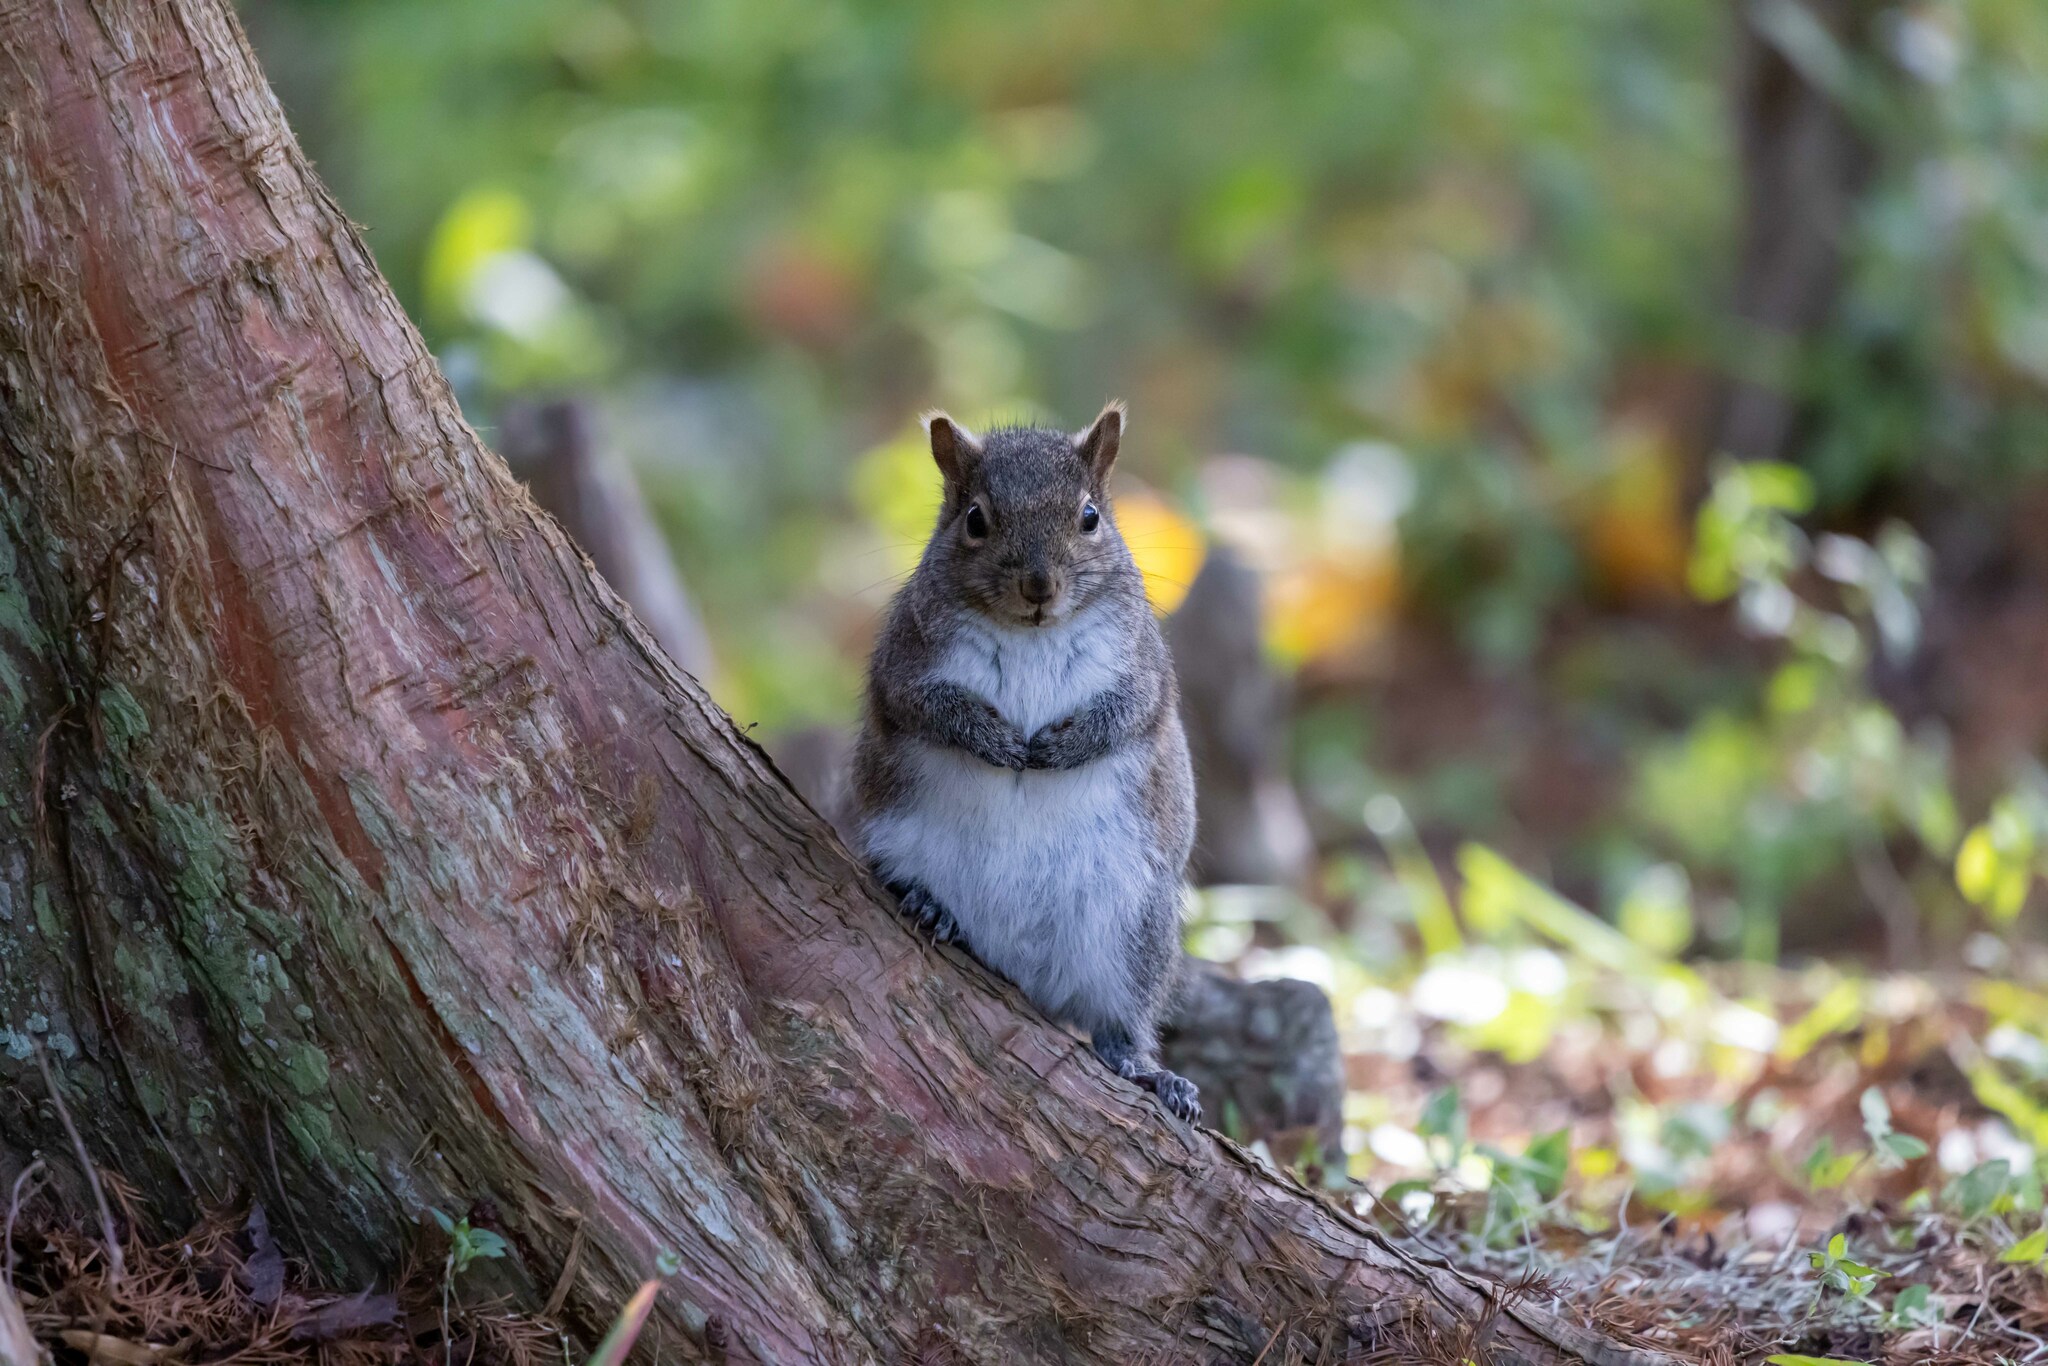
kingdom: Animalia
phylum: Chordata
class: Mammalia
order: Rodentia
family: Sciuridae
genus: Sciurus
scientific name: Sciurus carolinensis
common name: Eastern gray squirrel
